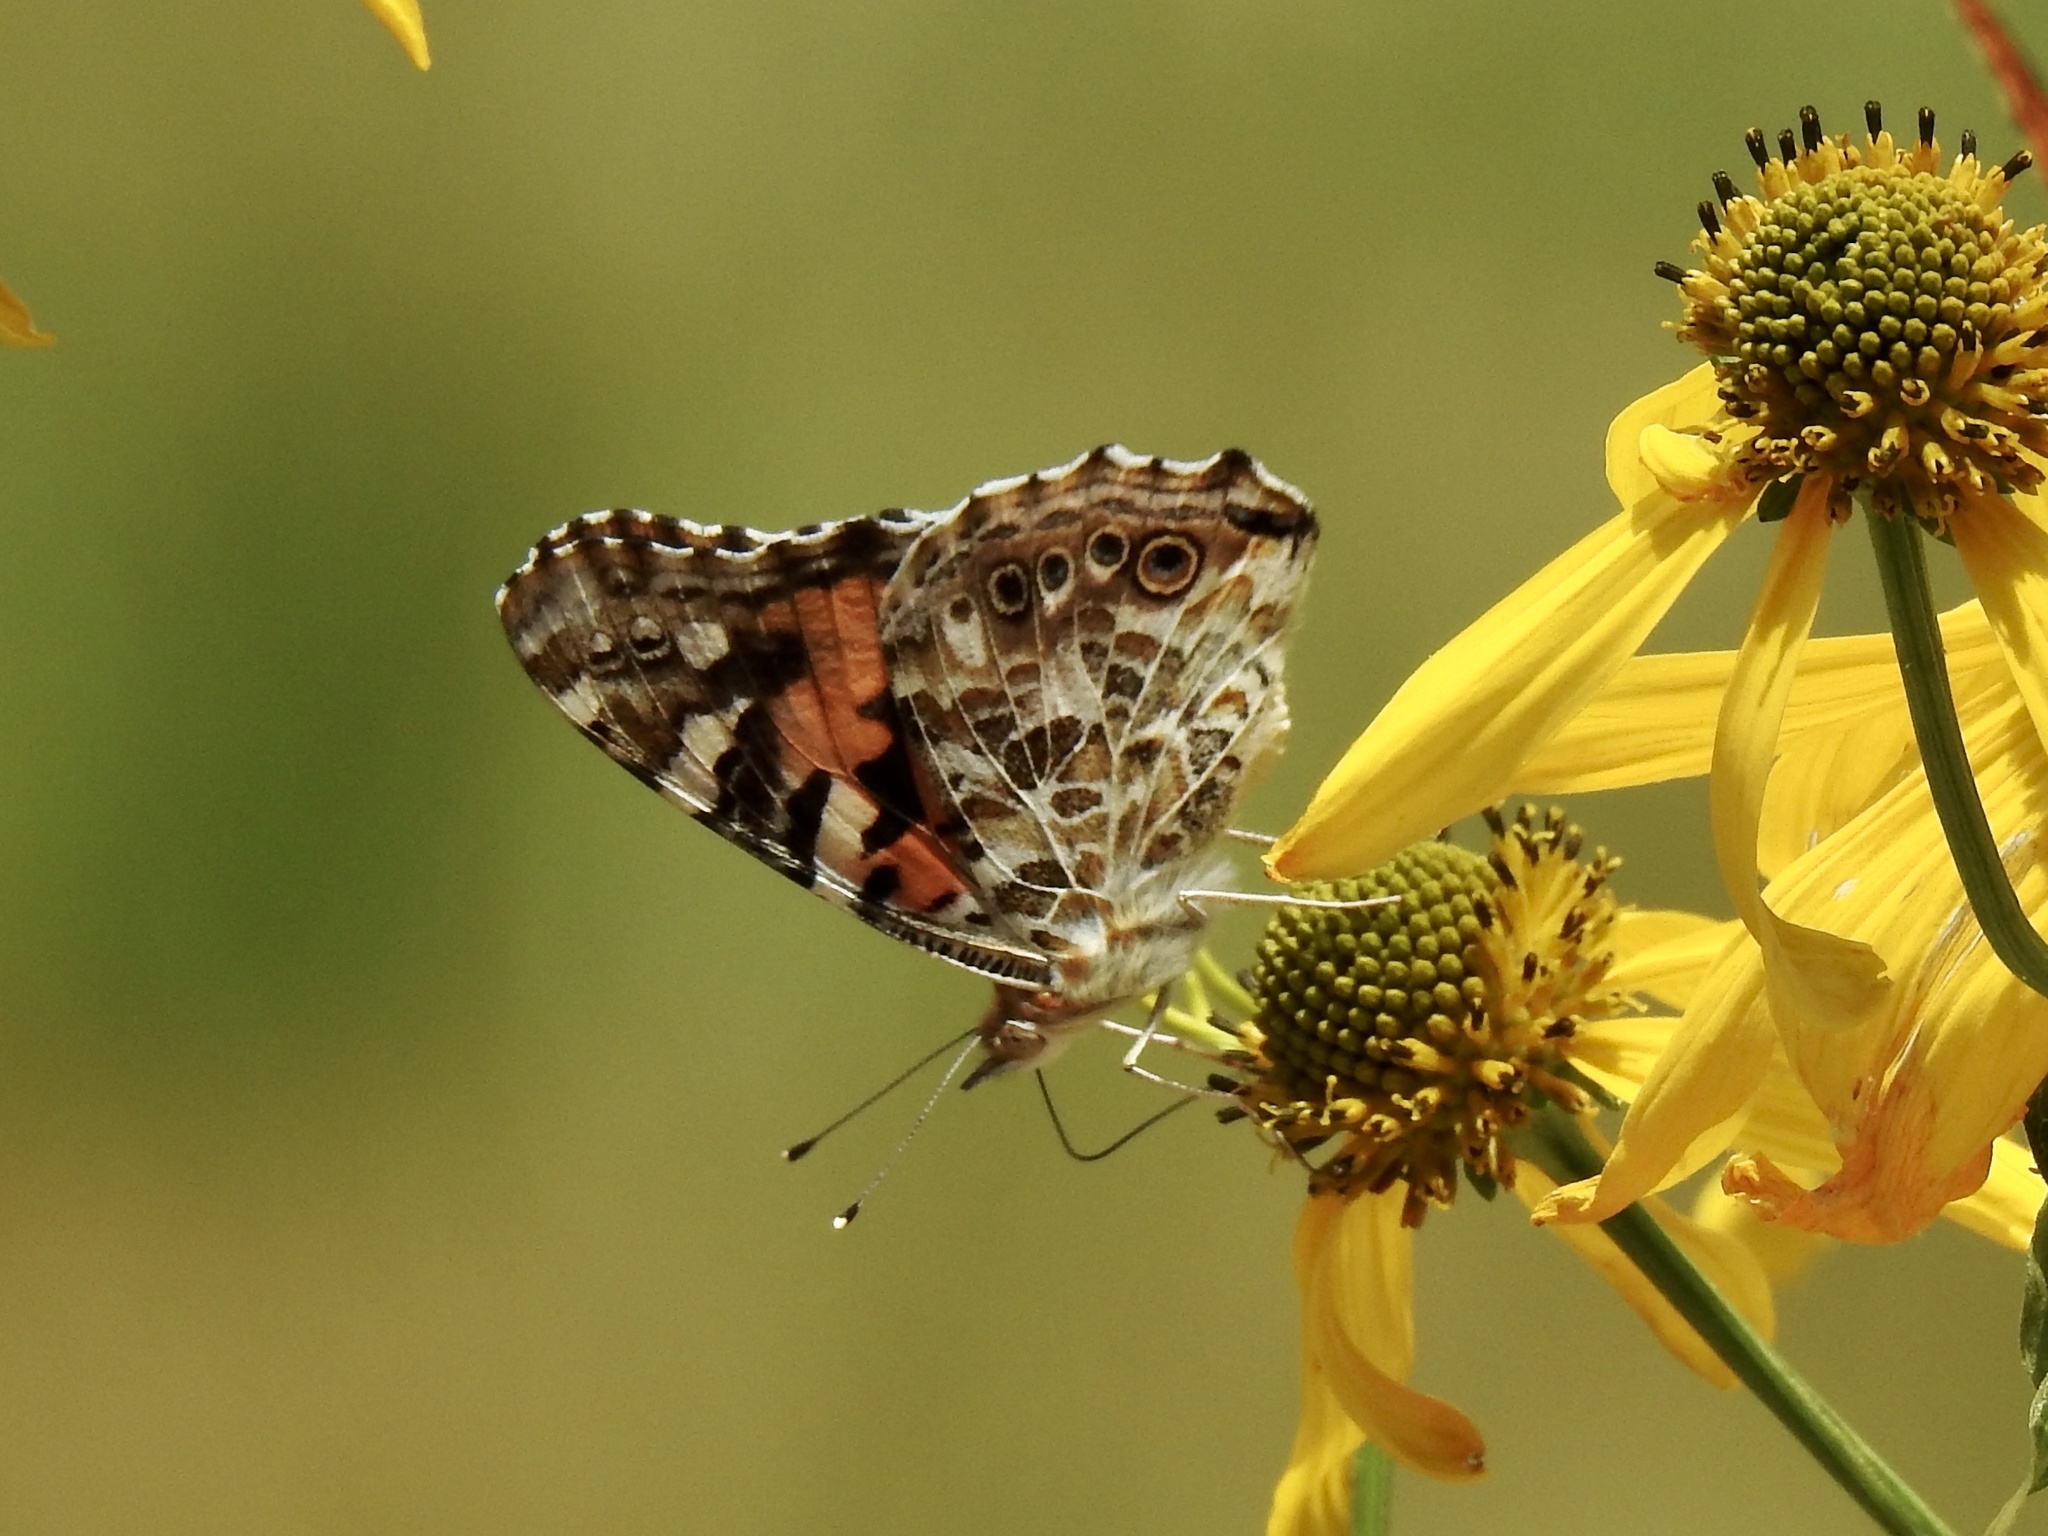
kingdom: Animalia
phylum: Arthropoda
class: Insecta
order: Lepidoptera
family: Nymphalidae
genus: Vanessa
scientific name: Vanessa cardui
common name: Painted lady
